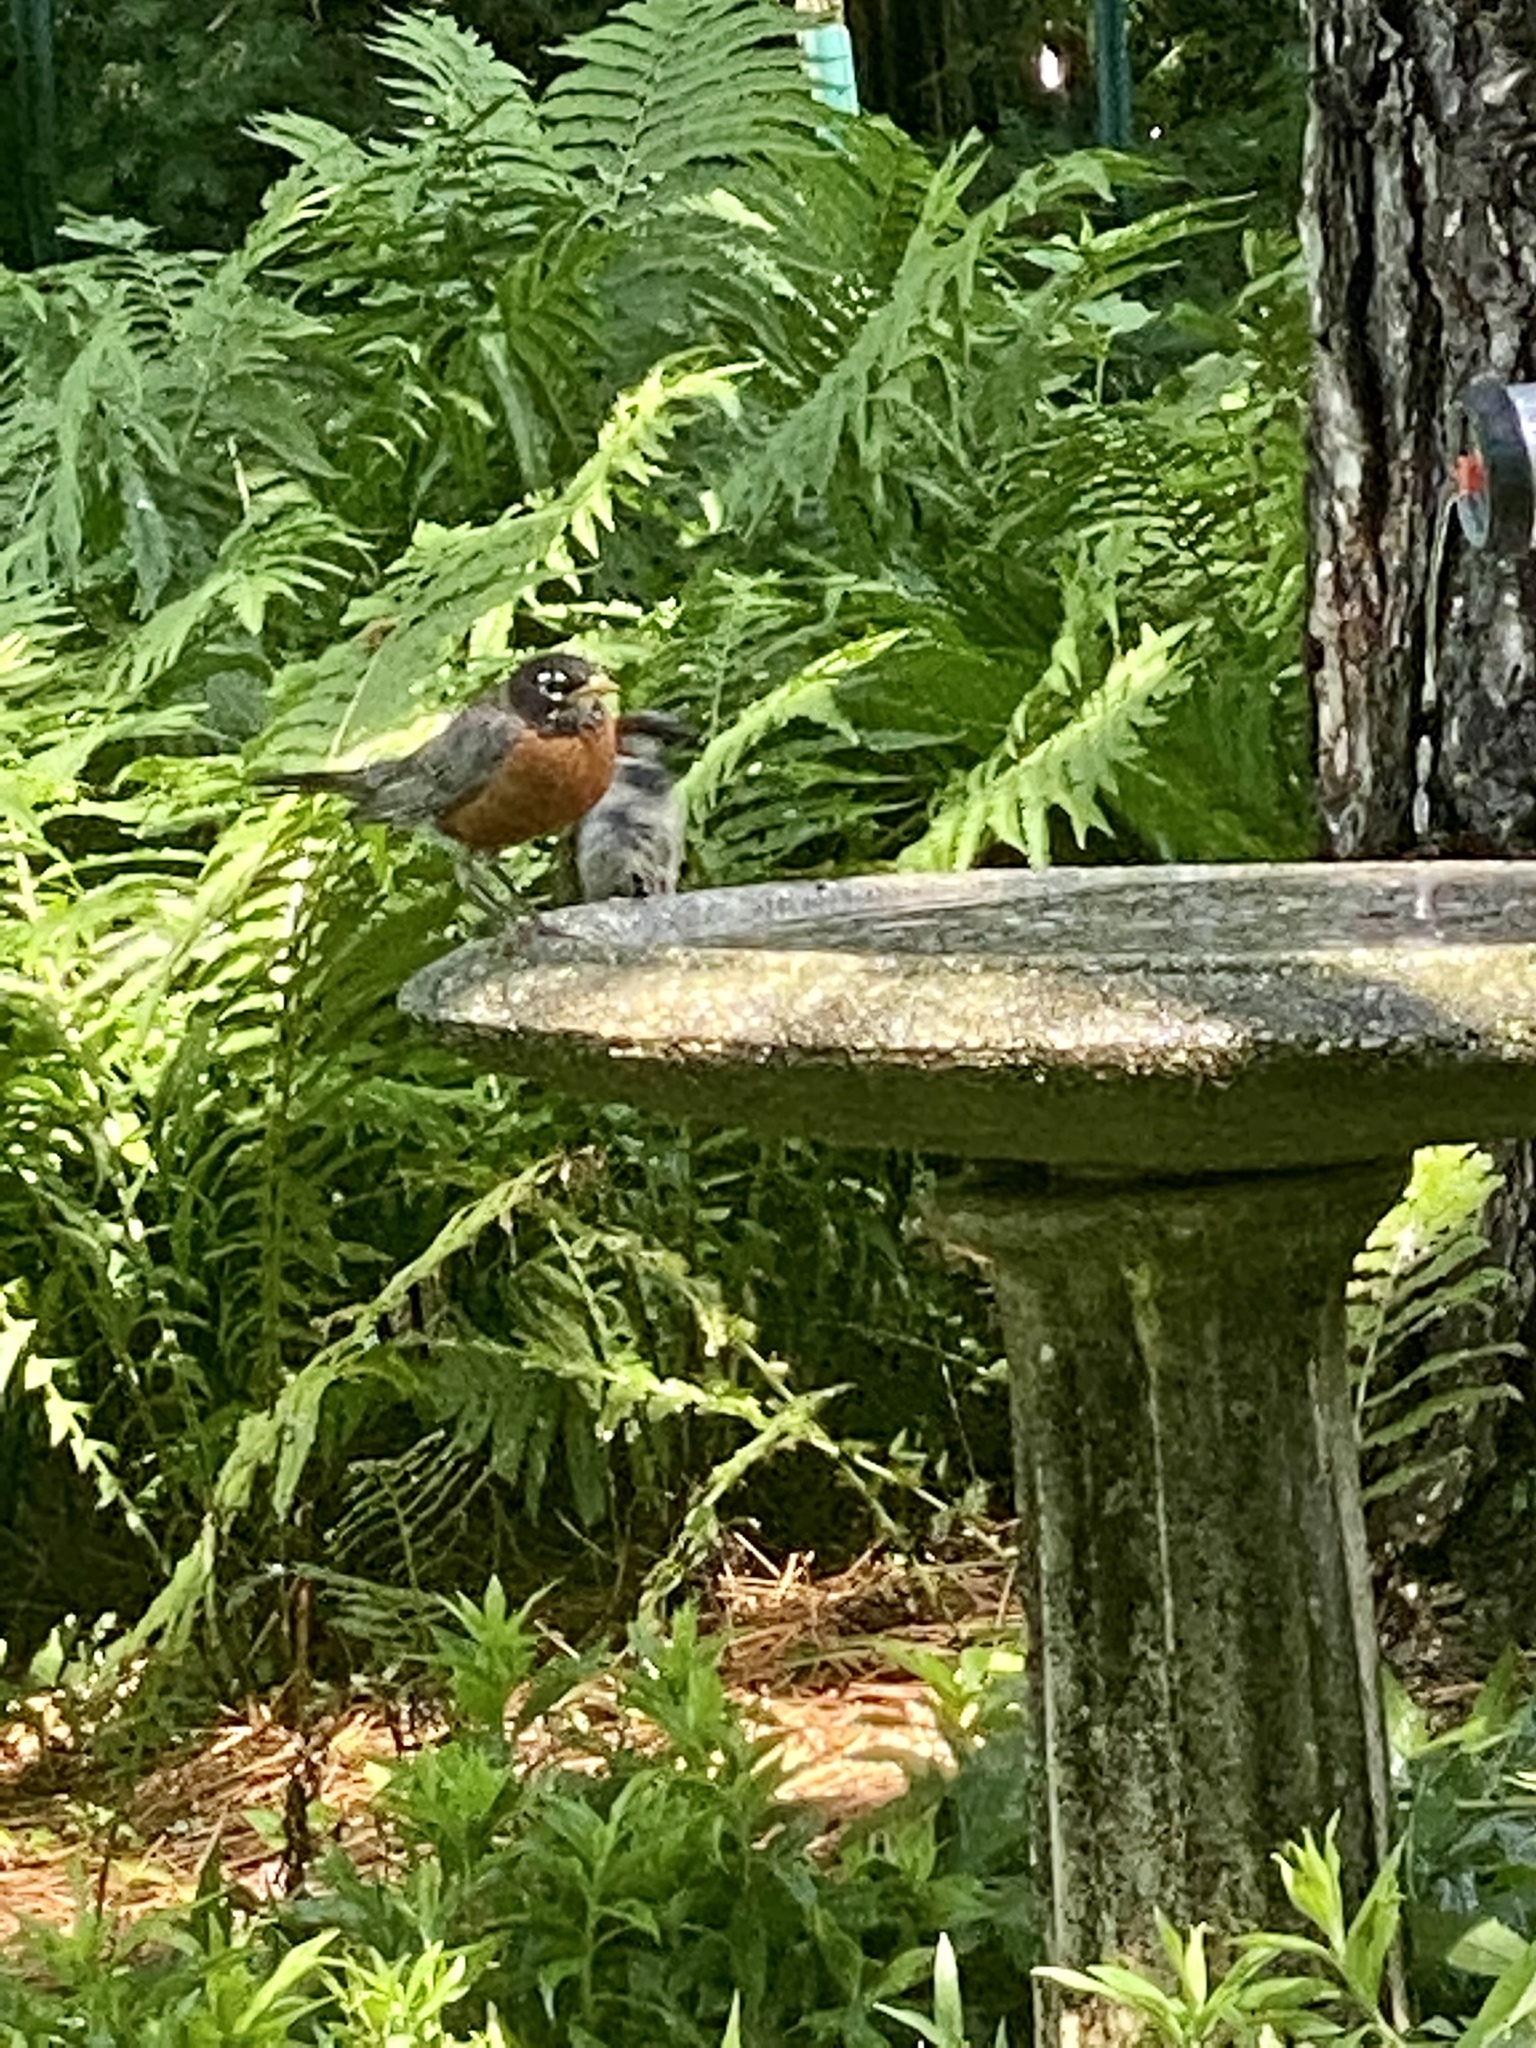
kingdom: Animalia
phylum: Chordata
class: Aves
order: Passeriformes
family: Turdidae
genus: Turdus
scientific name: Turdus migratorius
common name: American robin
